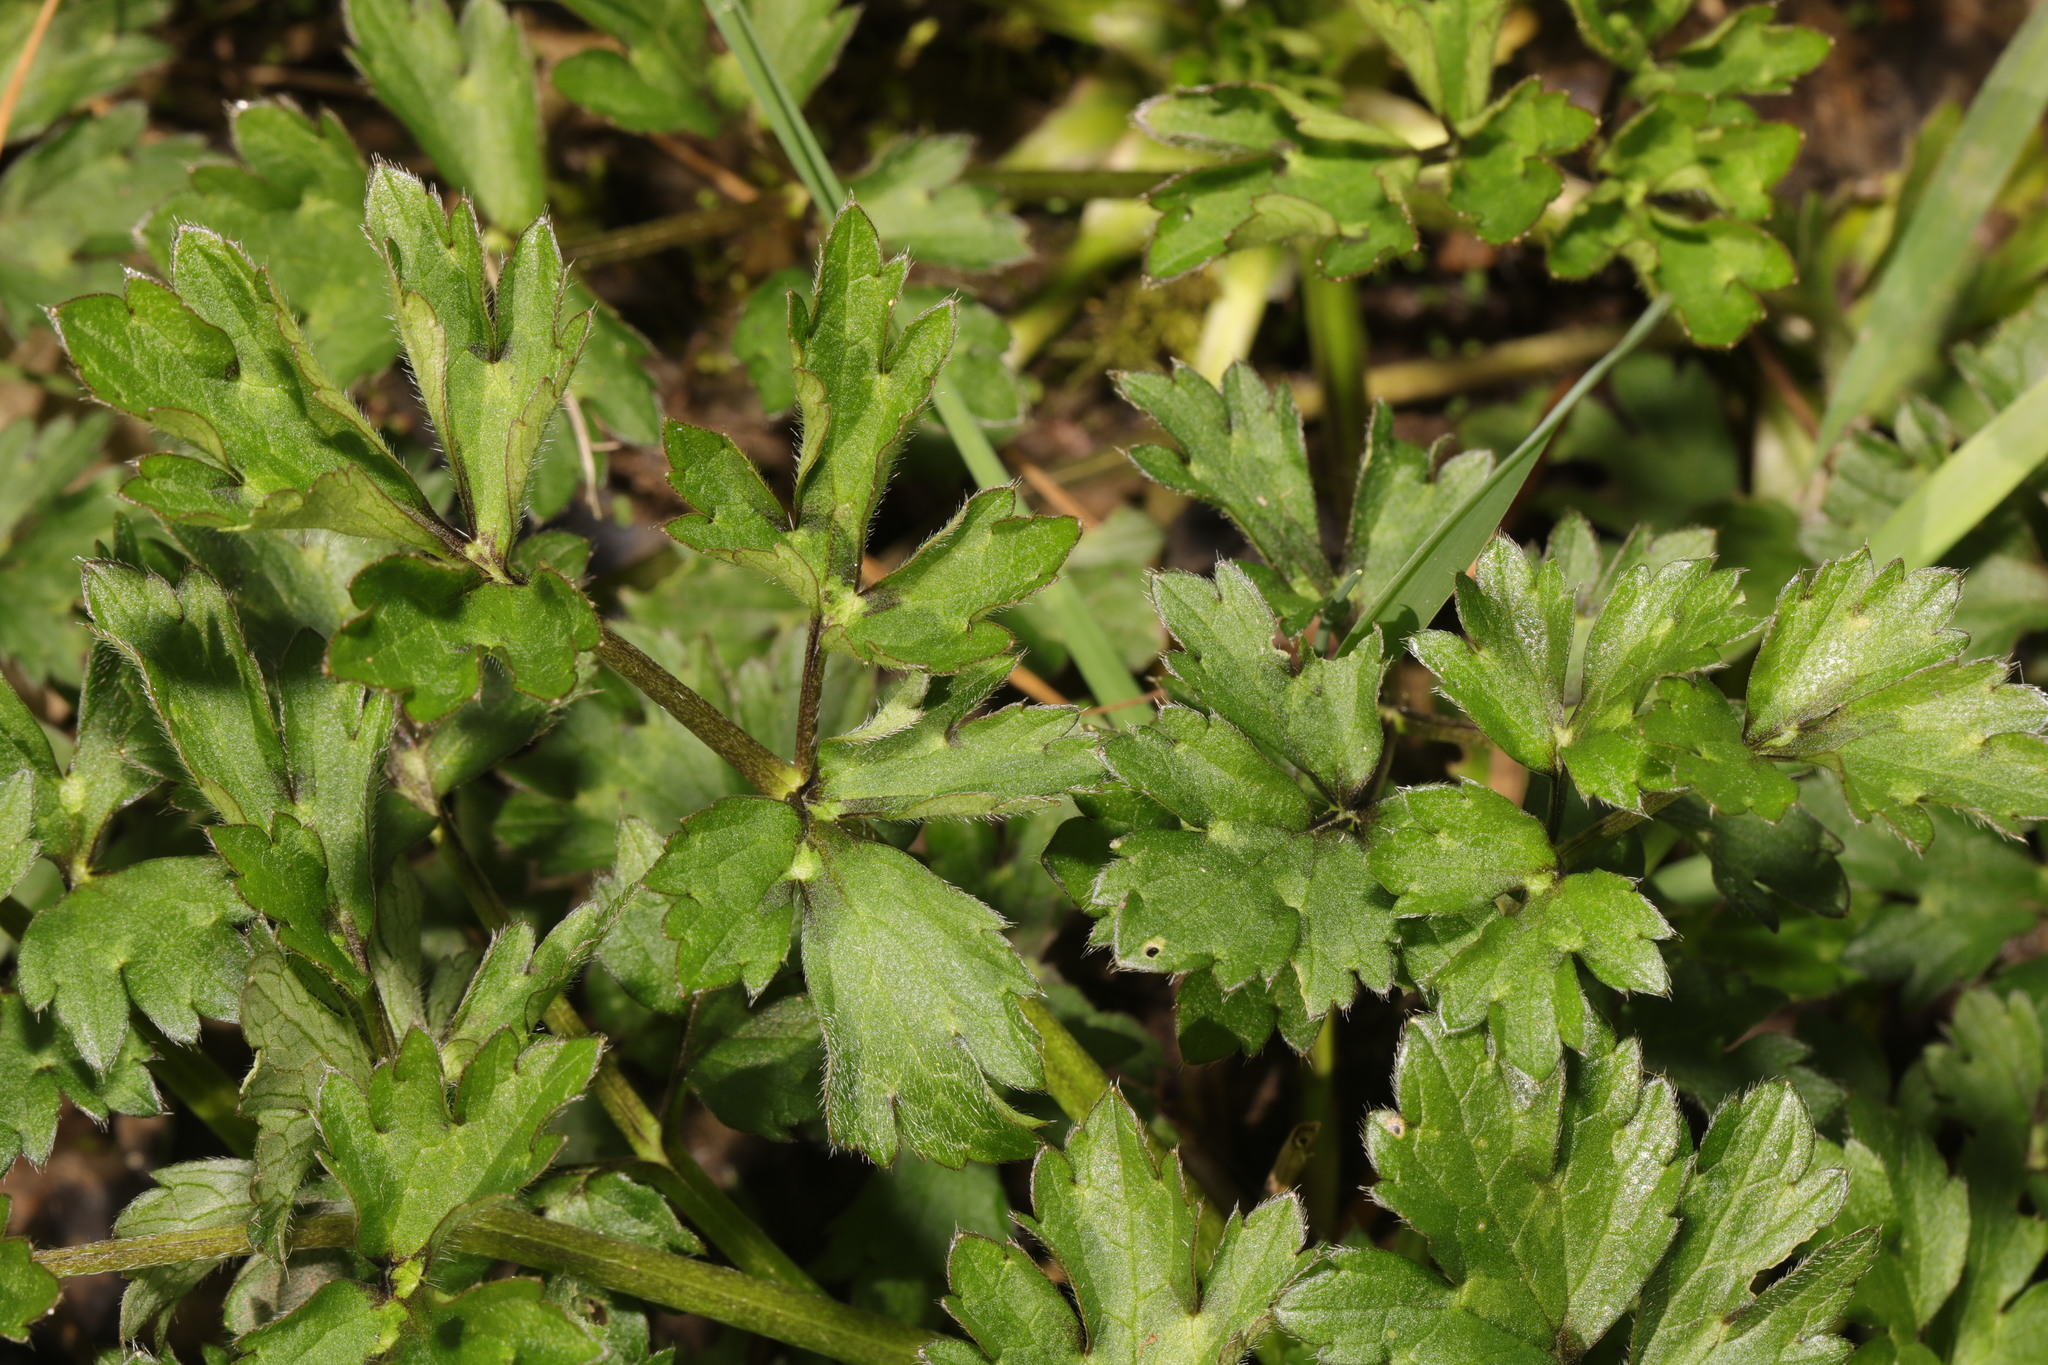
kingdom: Plantae
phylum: Tracheophyta
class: Magnoliopsida
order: Ranunculales
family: Ranunculaceae
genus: Ranunculus
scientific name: Ranunculus repens
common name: Creeping buttercup
